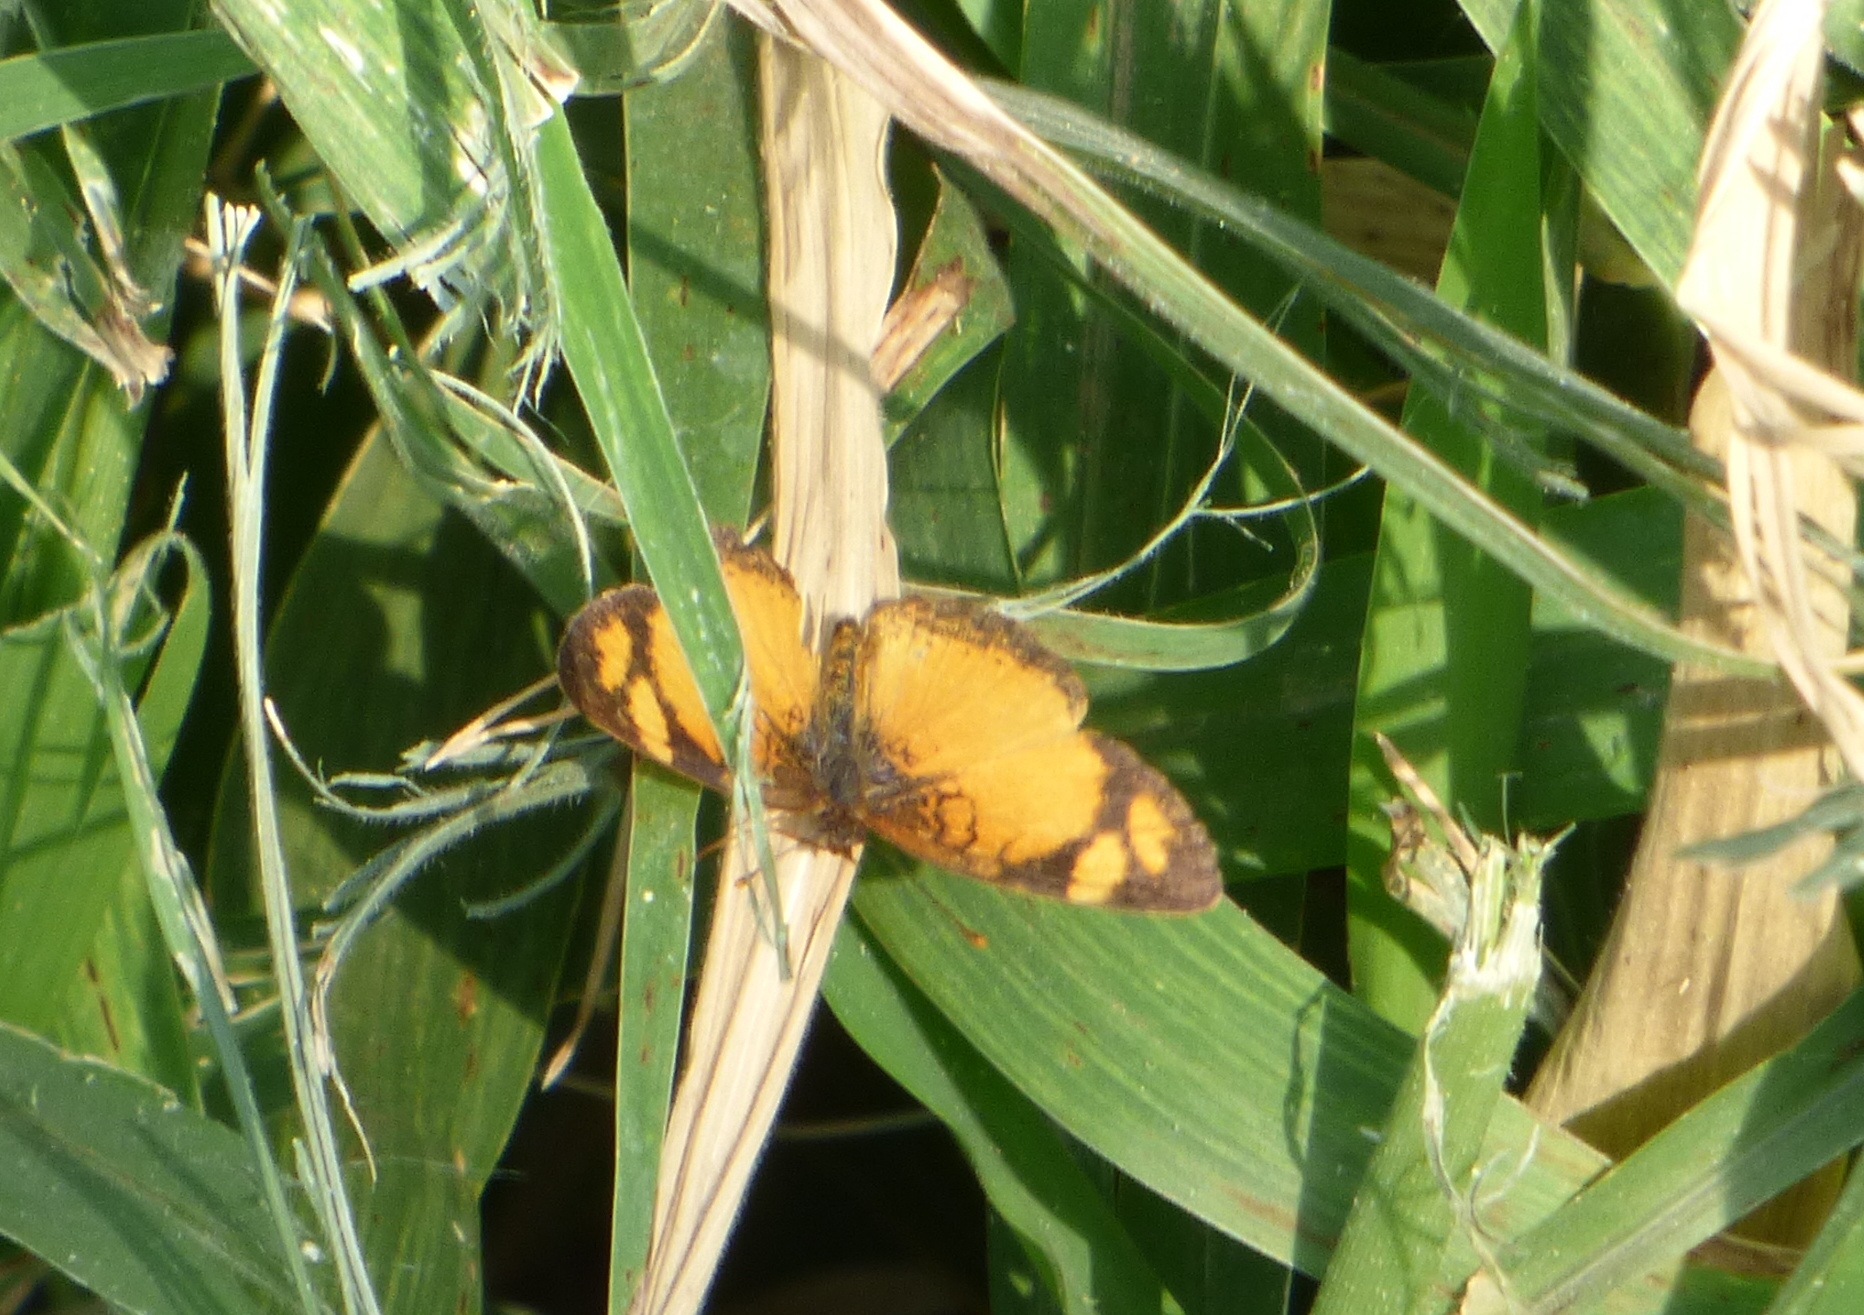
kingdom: Animalia
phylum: Arthropoda
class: Insecta
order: Lepidoptera
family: Nymphalidae
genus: Tegosa
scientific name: Tegosa claudina
